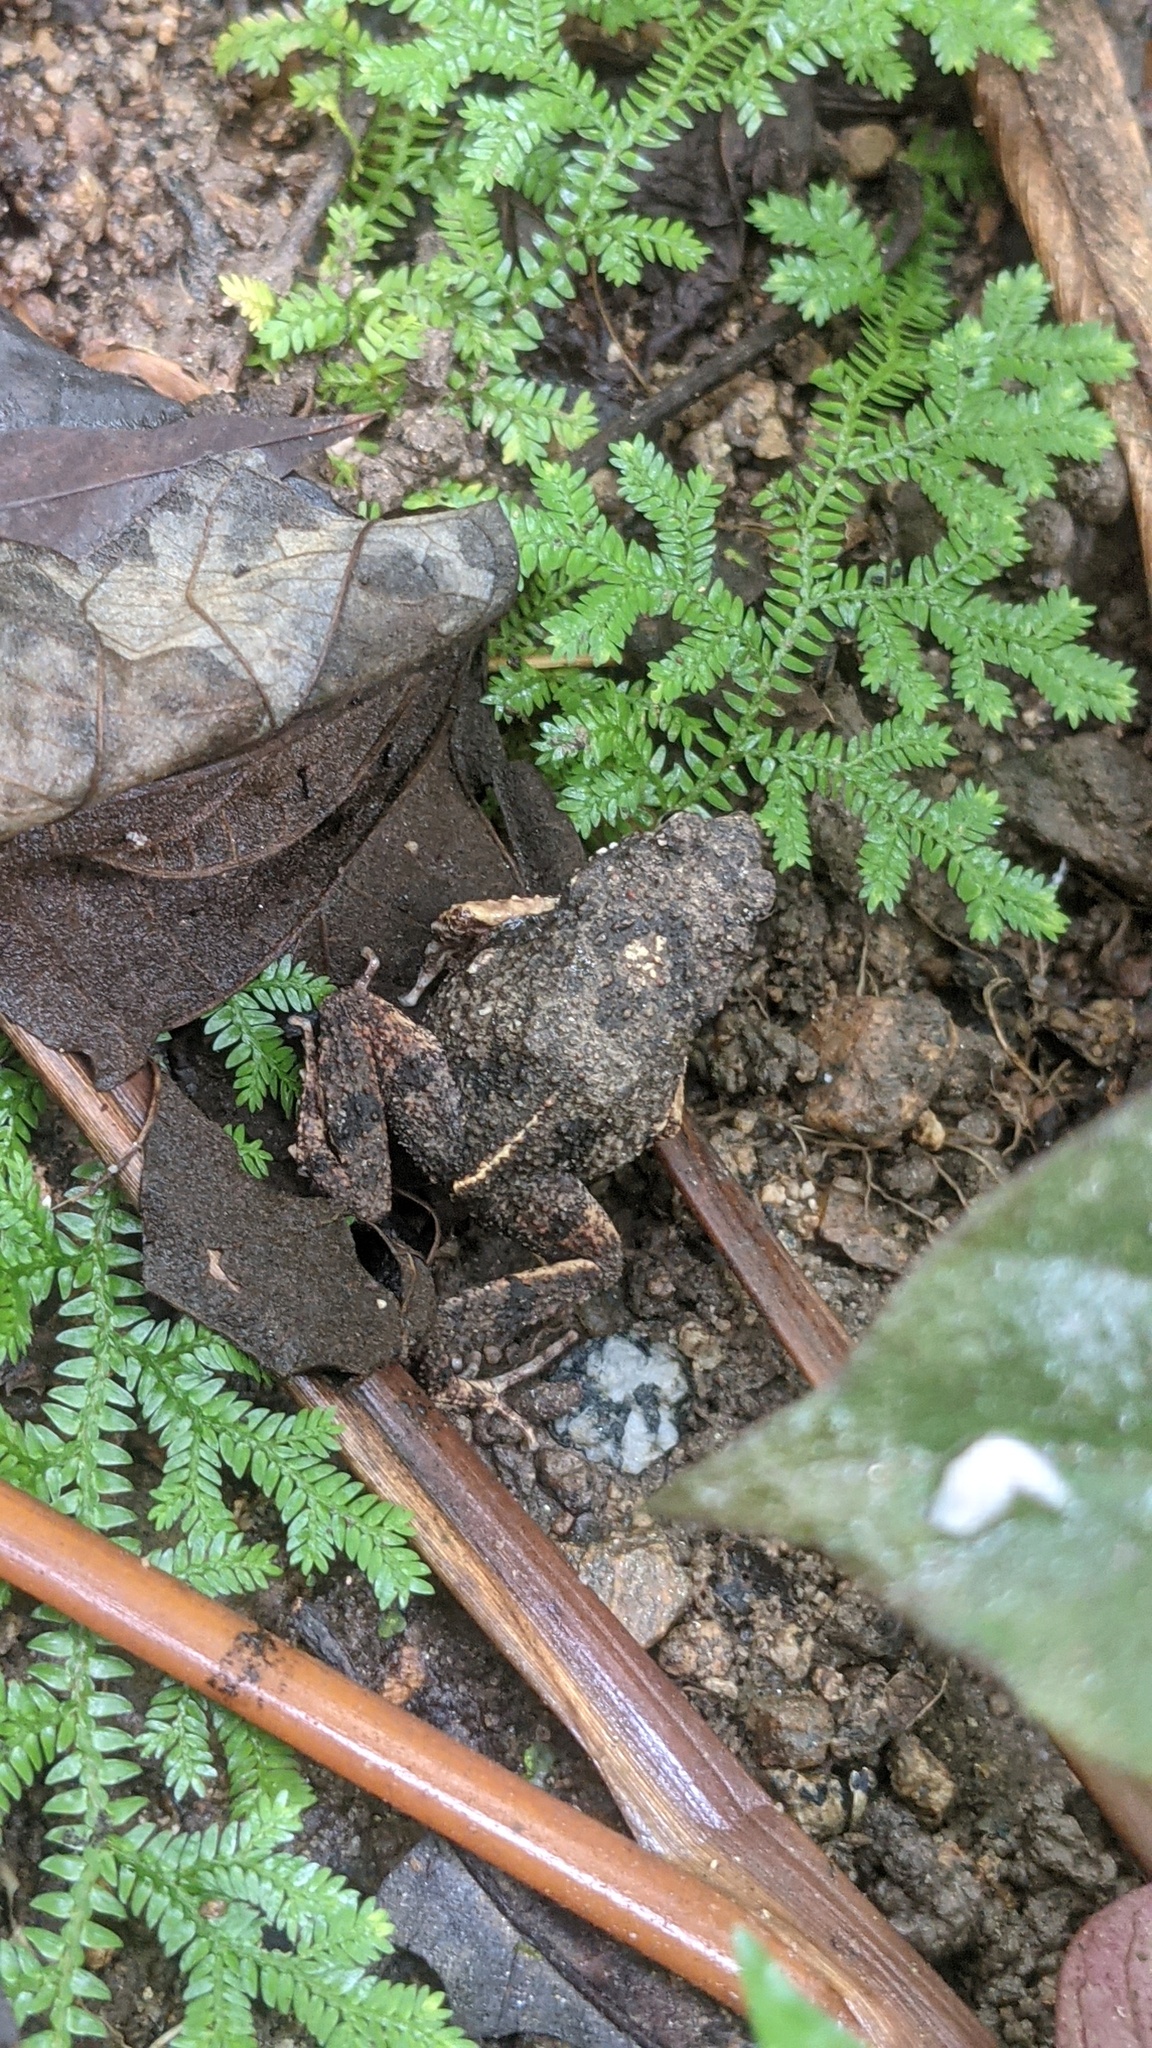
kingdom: Animalia
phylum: Chordata
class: Amphibia
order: Anura
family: Leptodactylidae
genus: Engystomops
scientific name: Engystomops pustulosus
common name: Tungara frog
